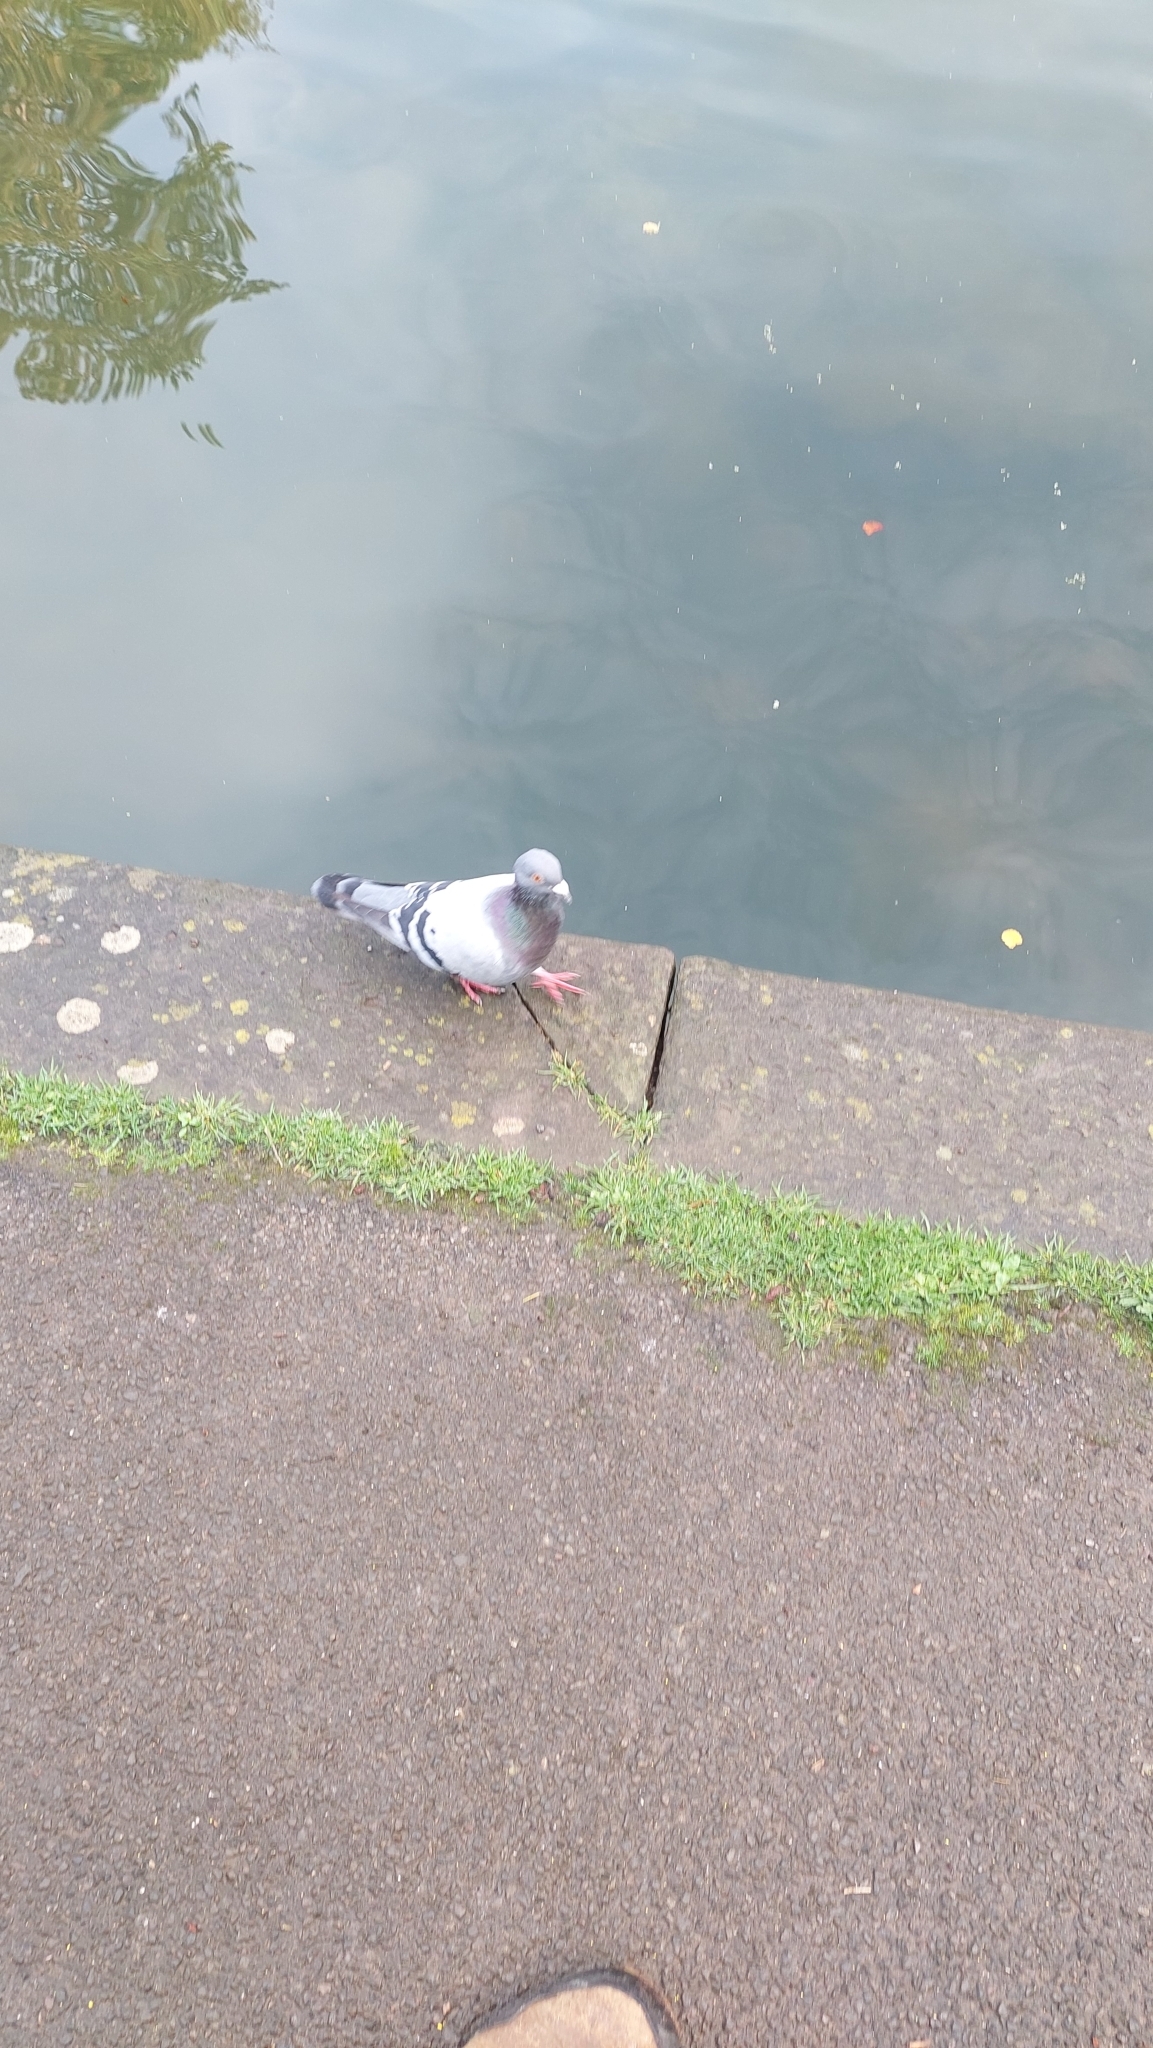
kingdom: Animalia
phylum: Chordata
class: Aves
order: Columbiformes
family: Columbidae
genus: Columba
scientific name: Columba livia
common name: Rock pigeon
